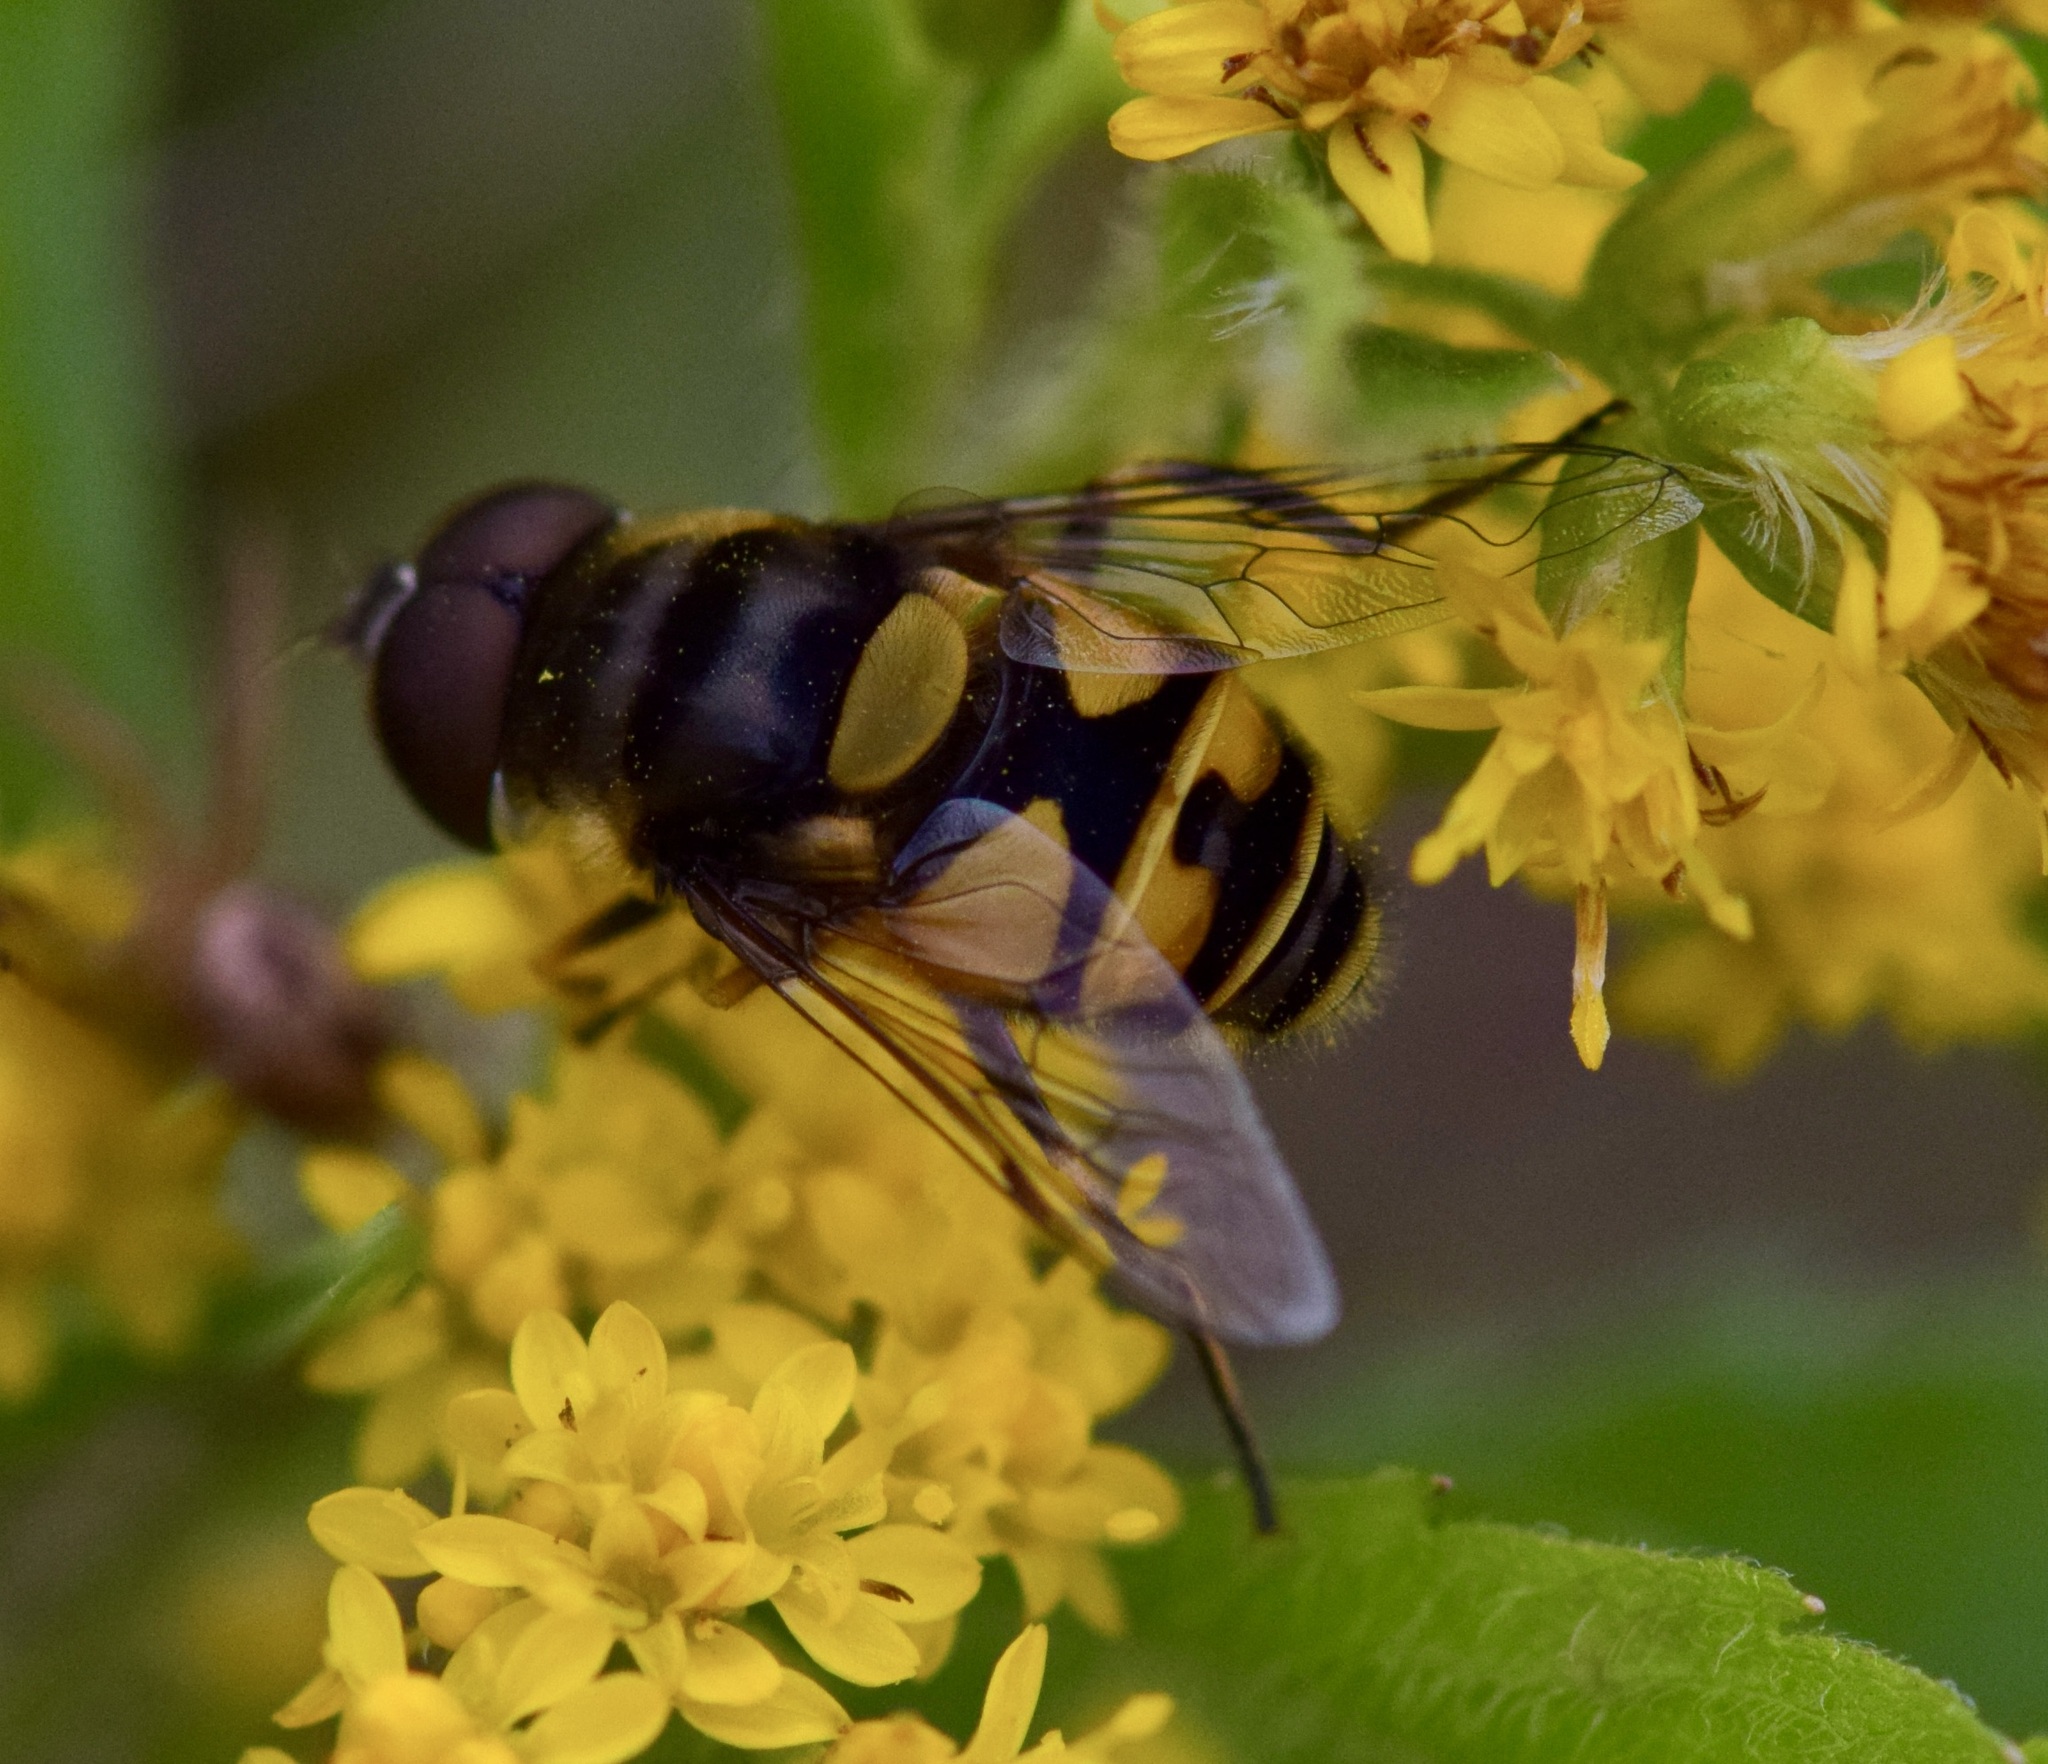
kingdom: Animalia
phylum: Arthropoda
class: Insecta
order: Diptera
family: Syrphidae
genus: Eristalis
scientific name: Eristalis transversa
